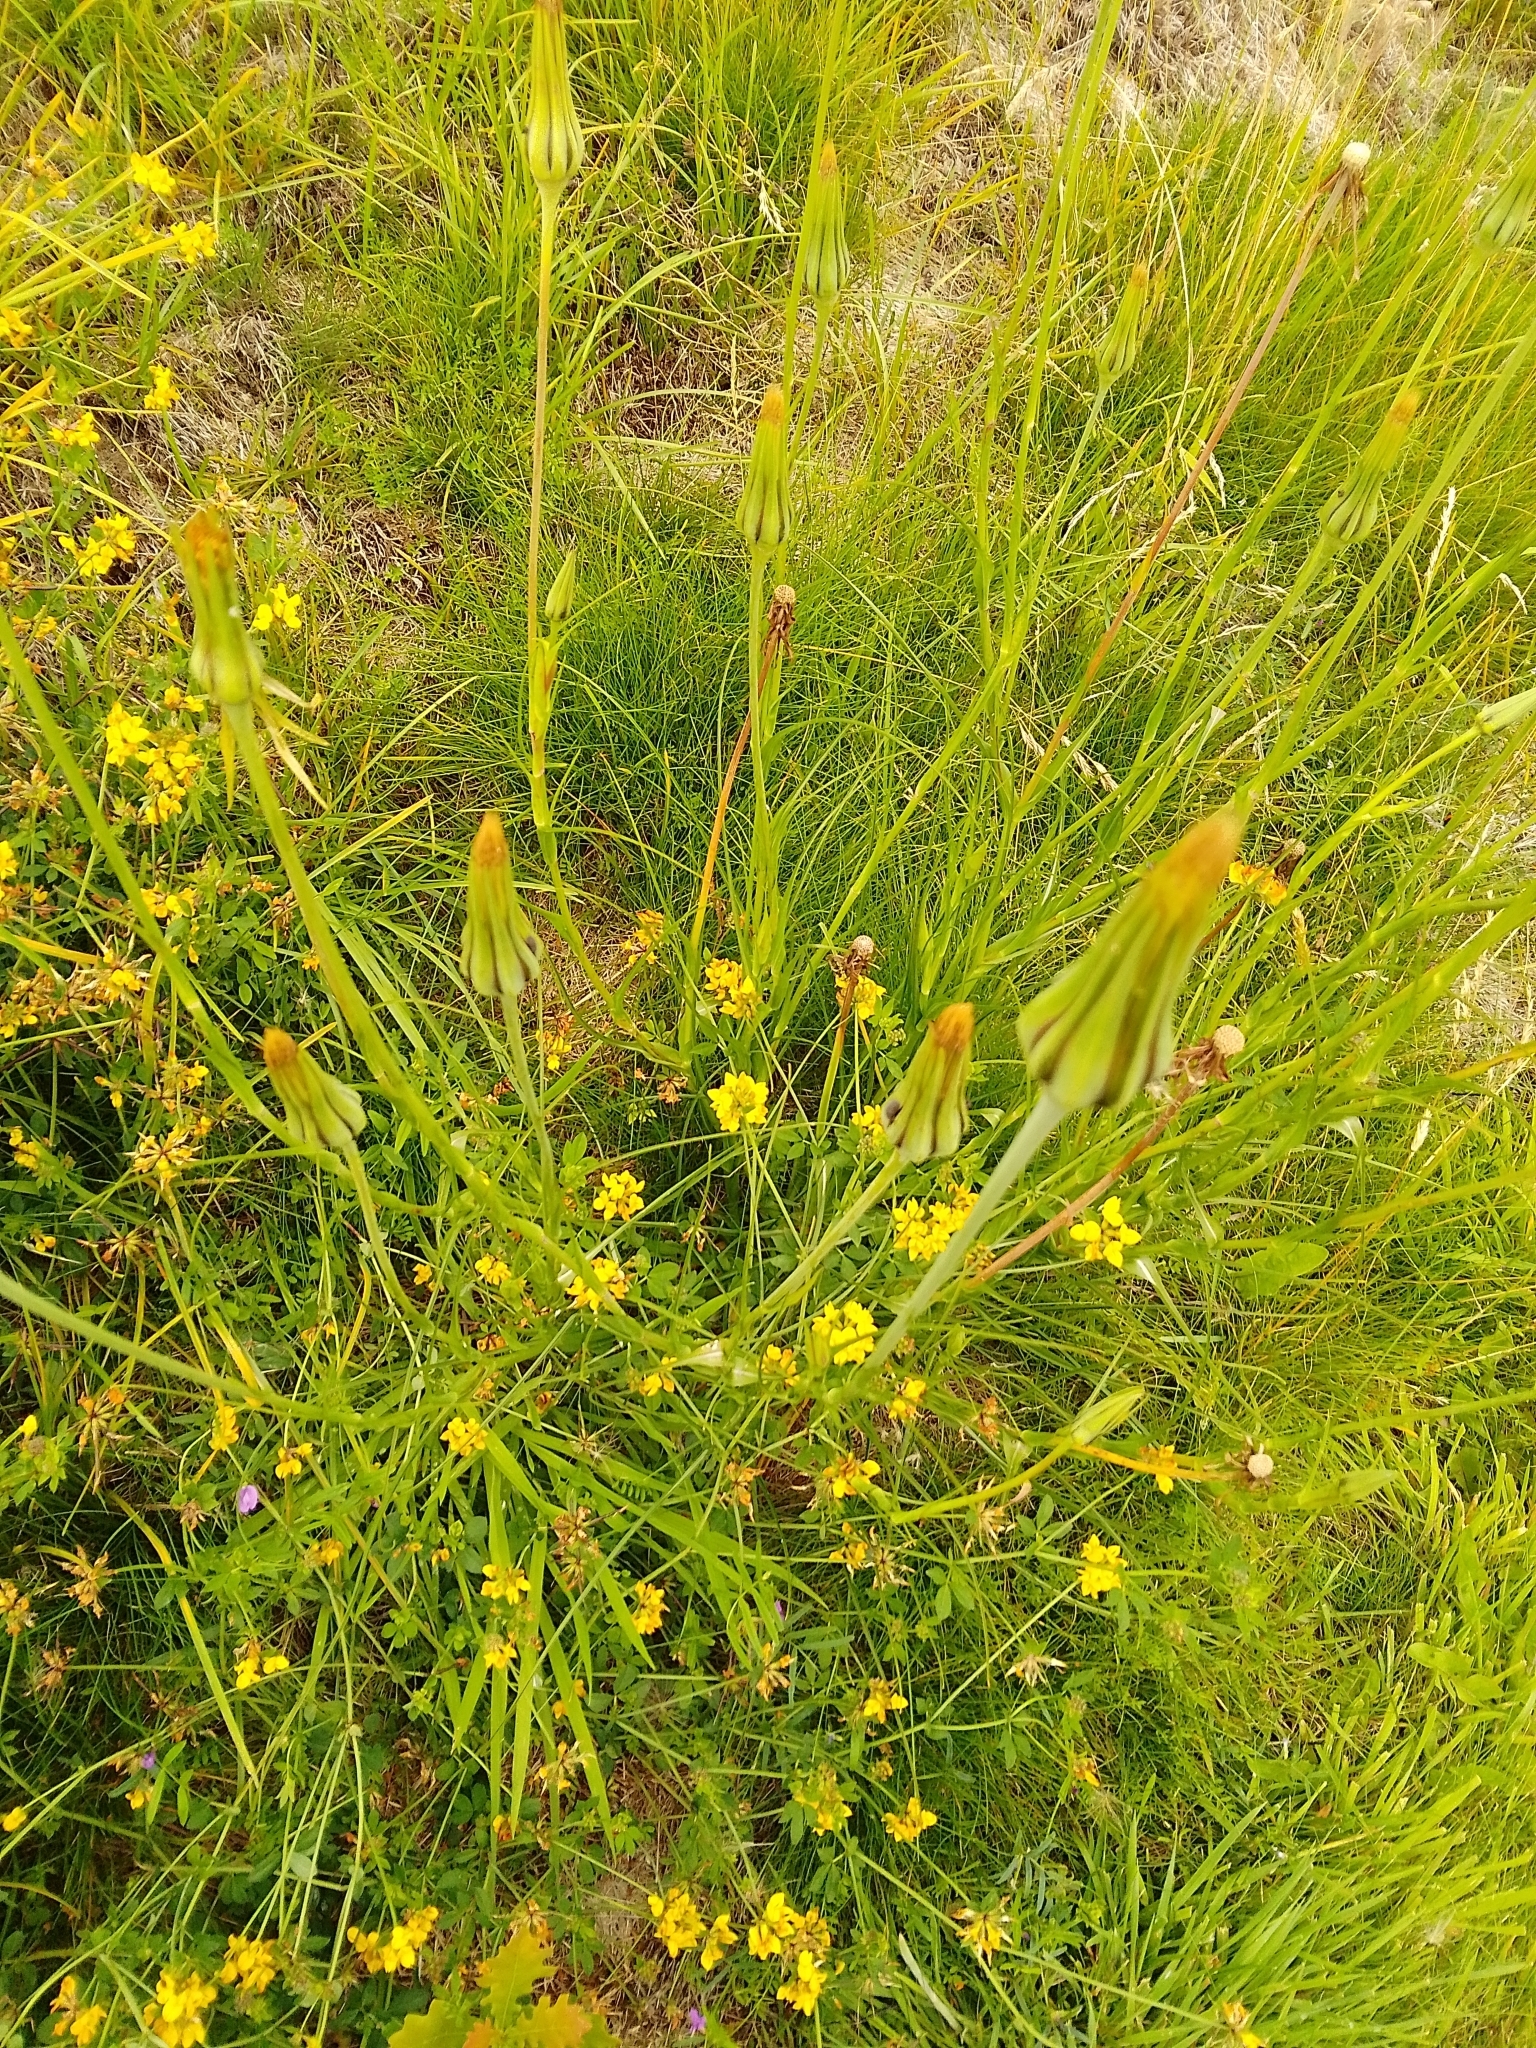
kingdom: Plantae
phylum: Tracheophyta
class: Magnoliopsida
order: Asterales
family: Asteraceae
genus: Tragopogon
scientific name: Tragopogon pratensis
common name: Goat's-beard
